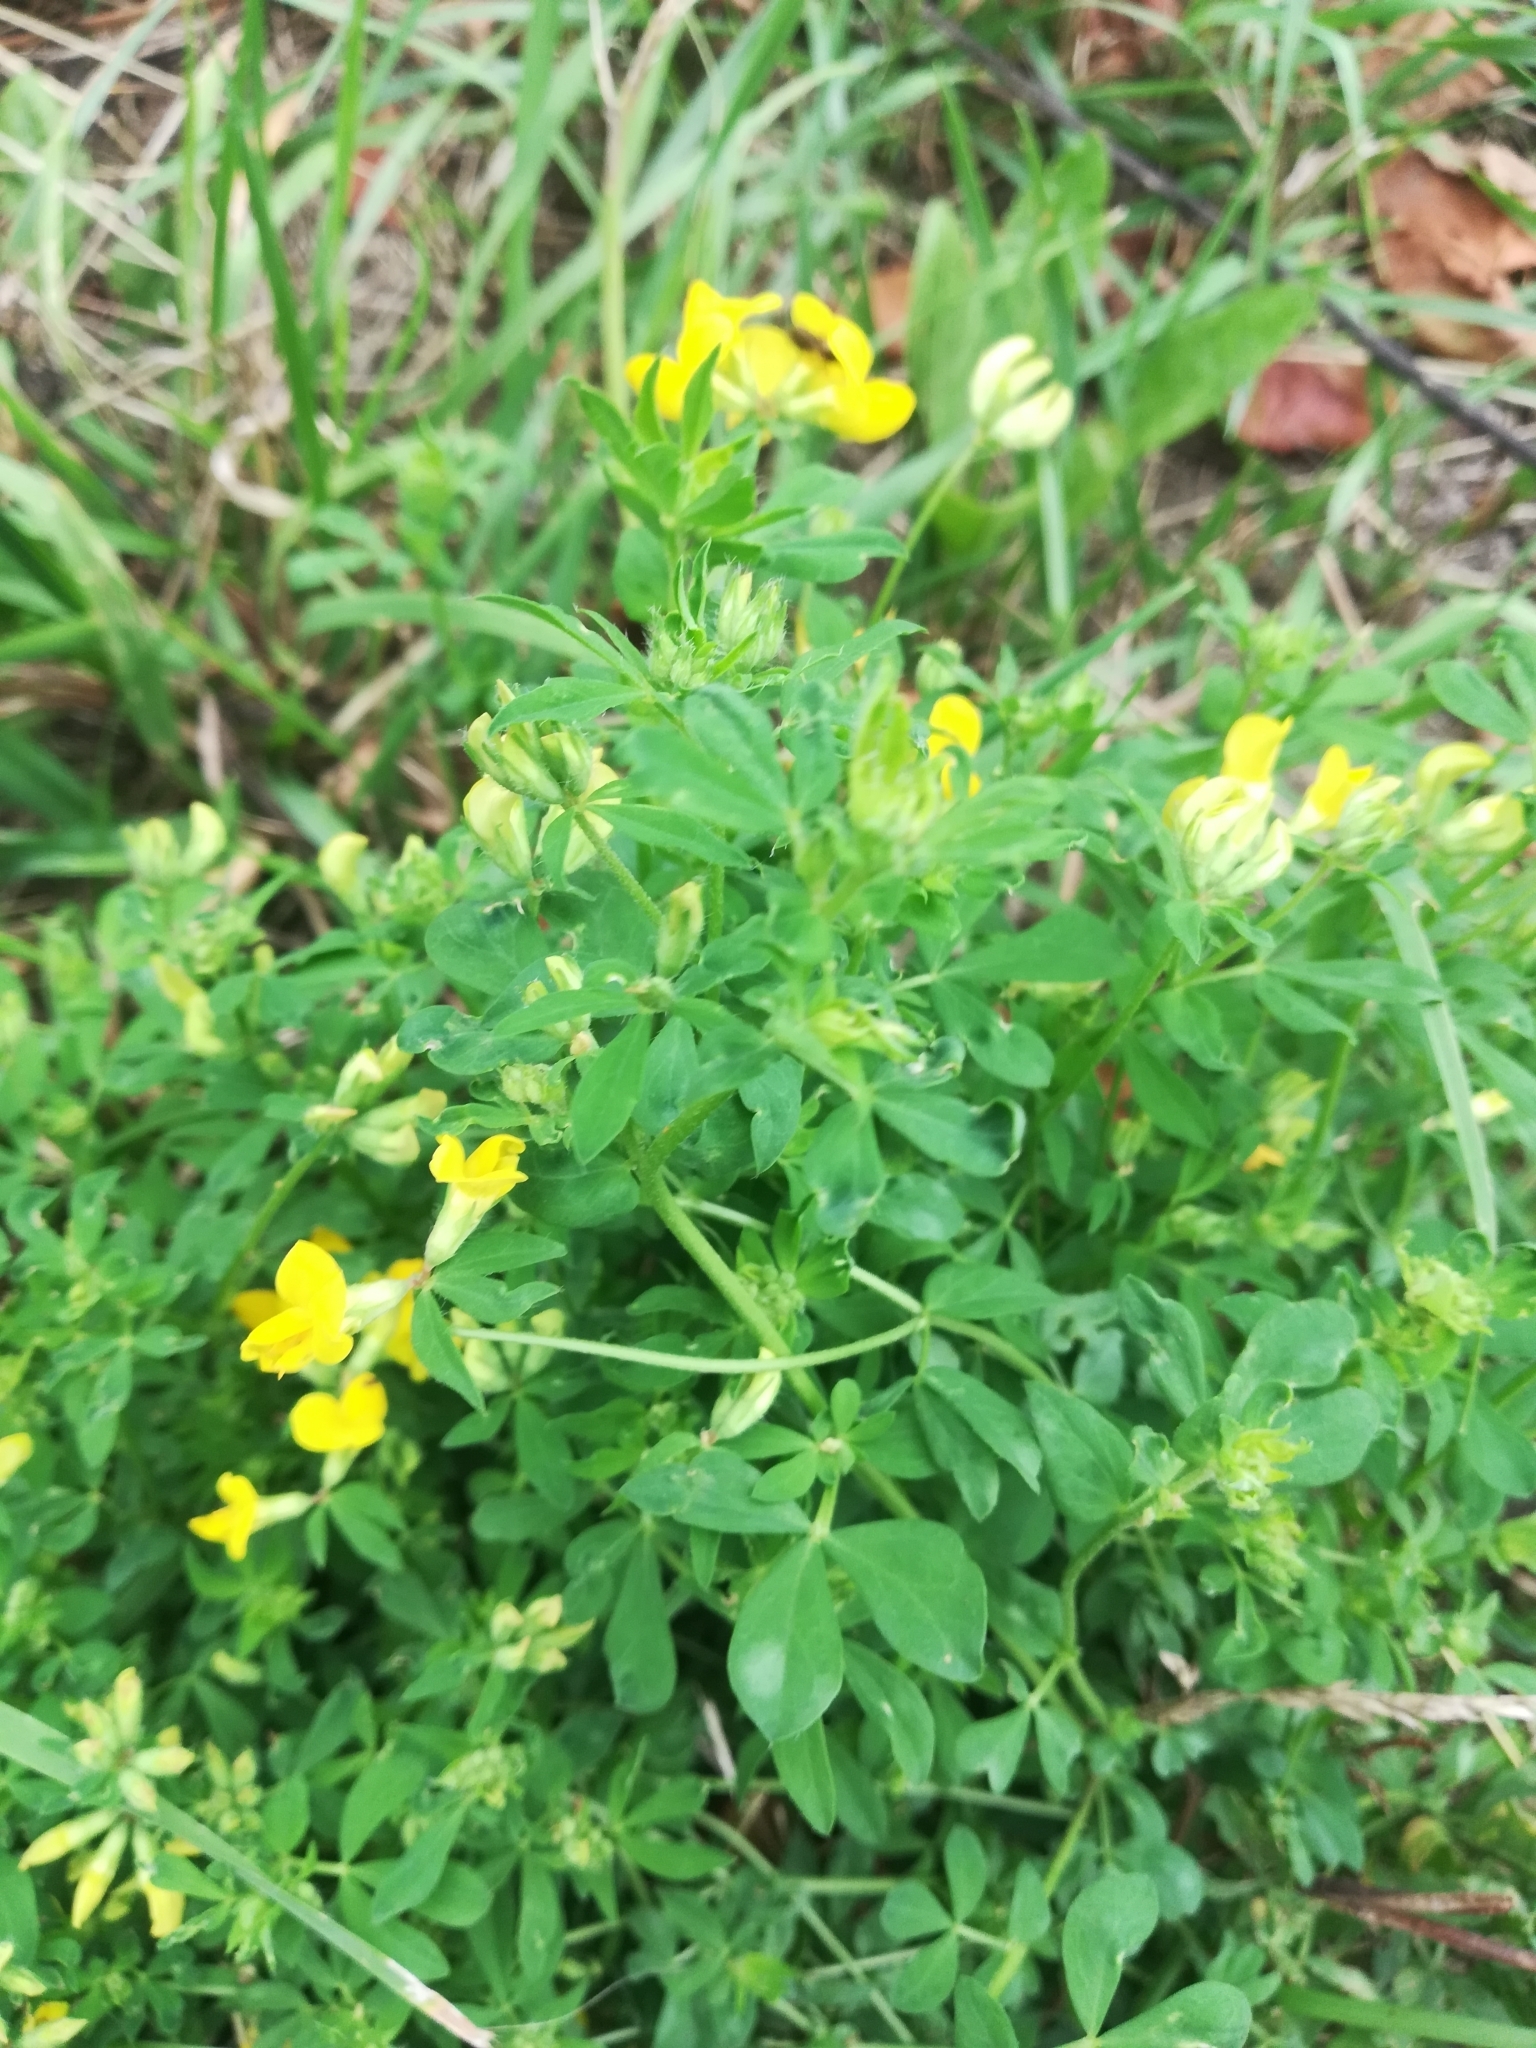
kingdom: Plantae
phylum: Tracheophyta
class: Magnoliopsida
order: Fabales
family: Fabaceae
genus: Lotus
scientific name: Lotus corniculatus
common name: Common bird's-foot-trefoil
